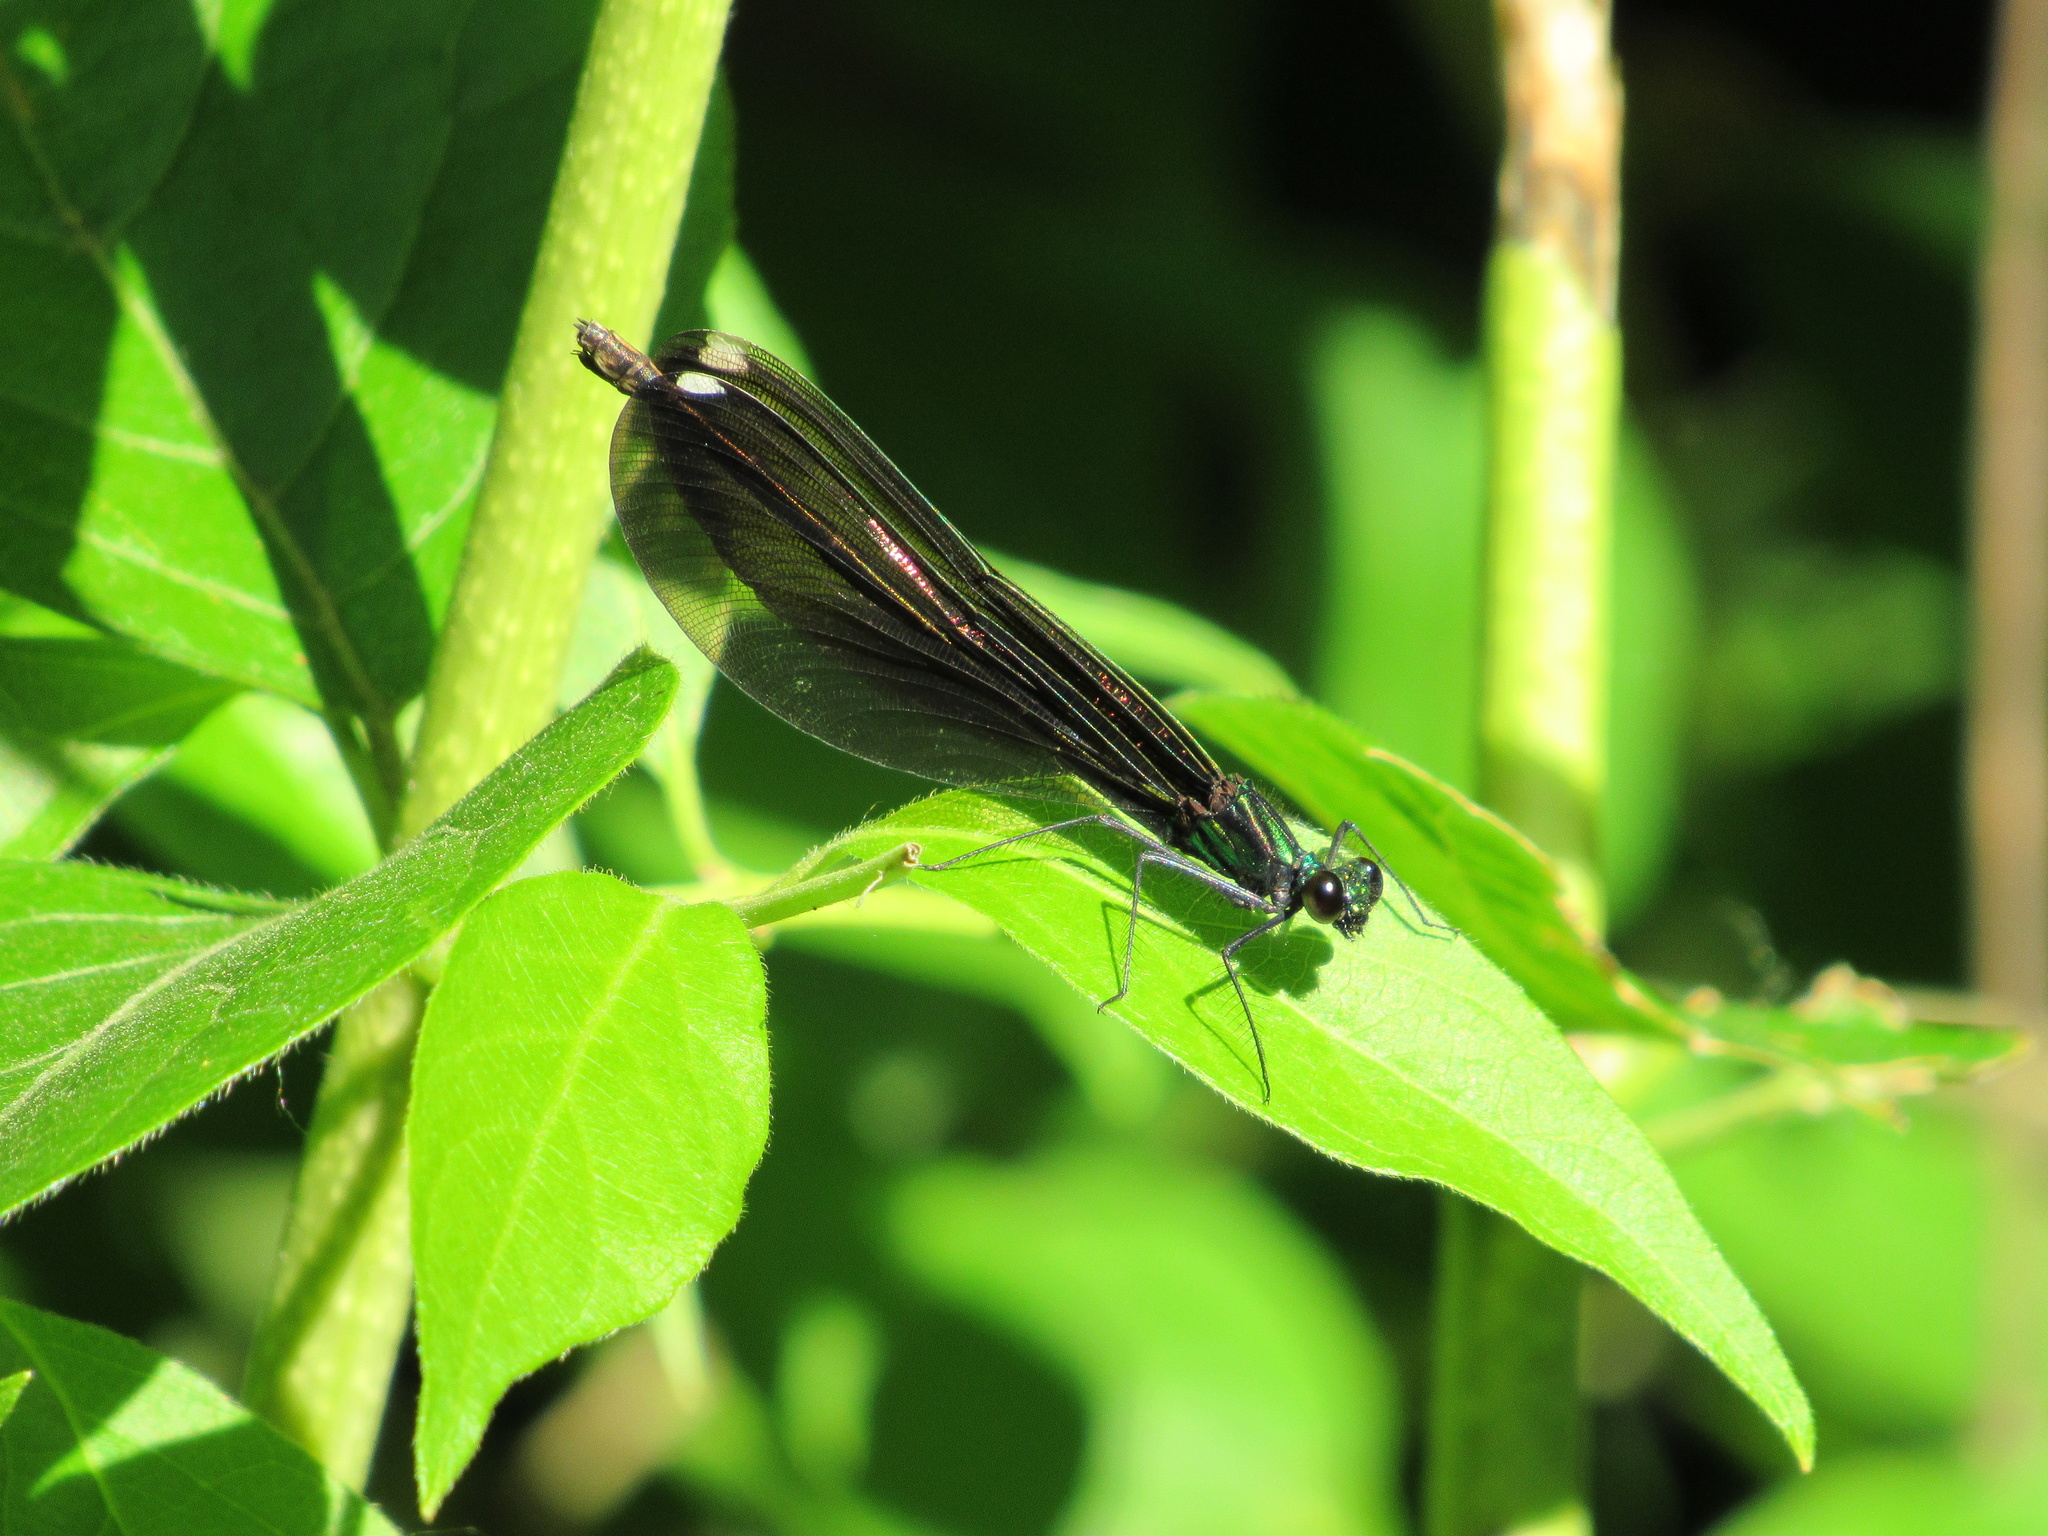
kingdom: Animalia
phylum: Arthropoda
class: Insecta
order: Odonata
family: Calopterygidae
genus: Calopteryx
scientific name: Calopteryx maculata
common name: Ebony jewelwing
